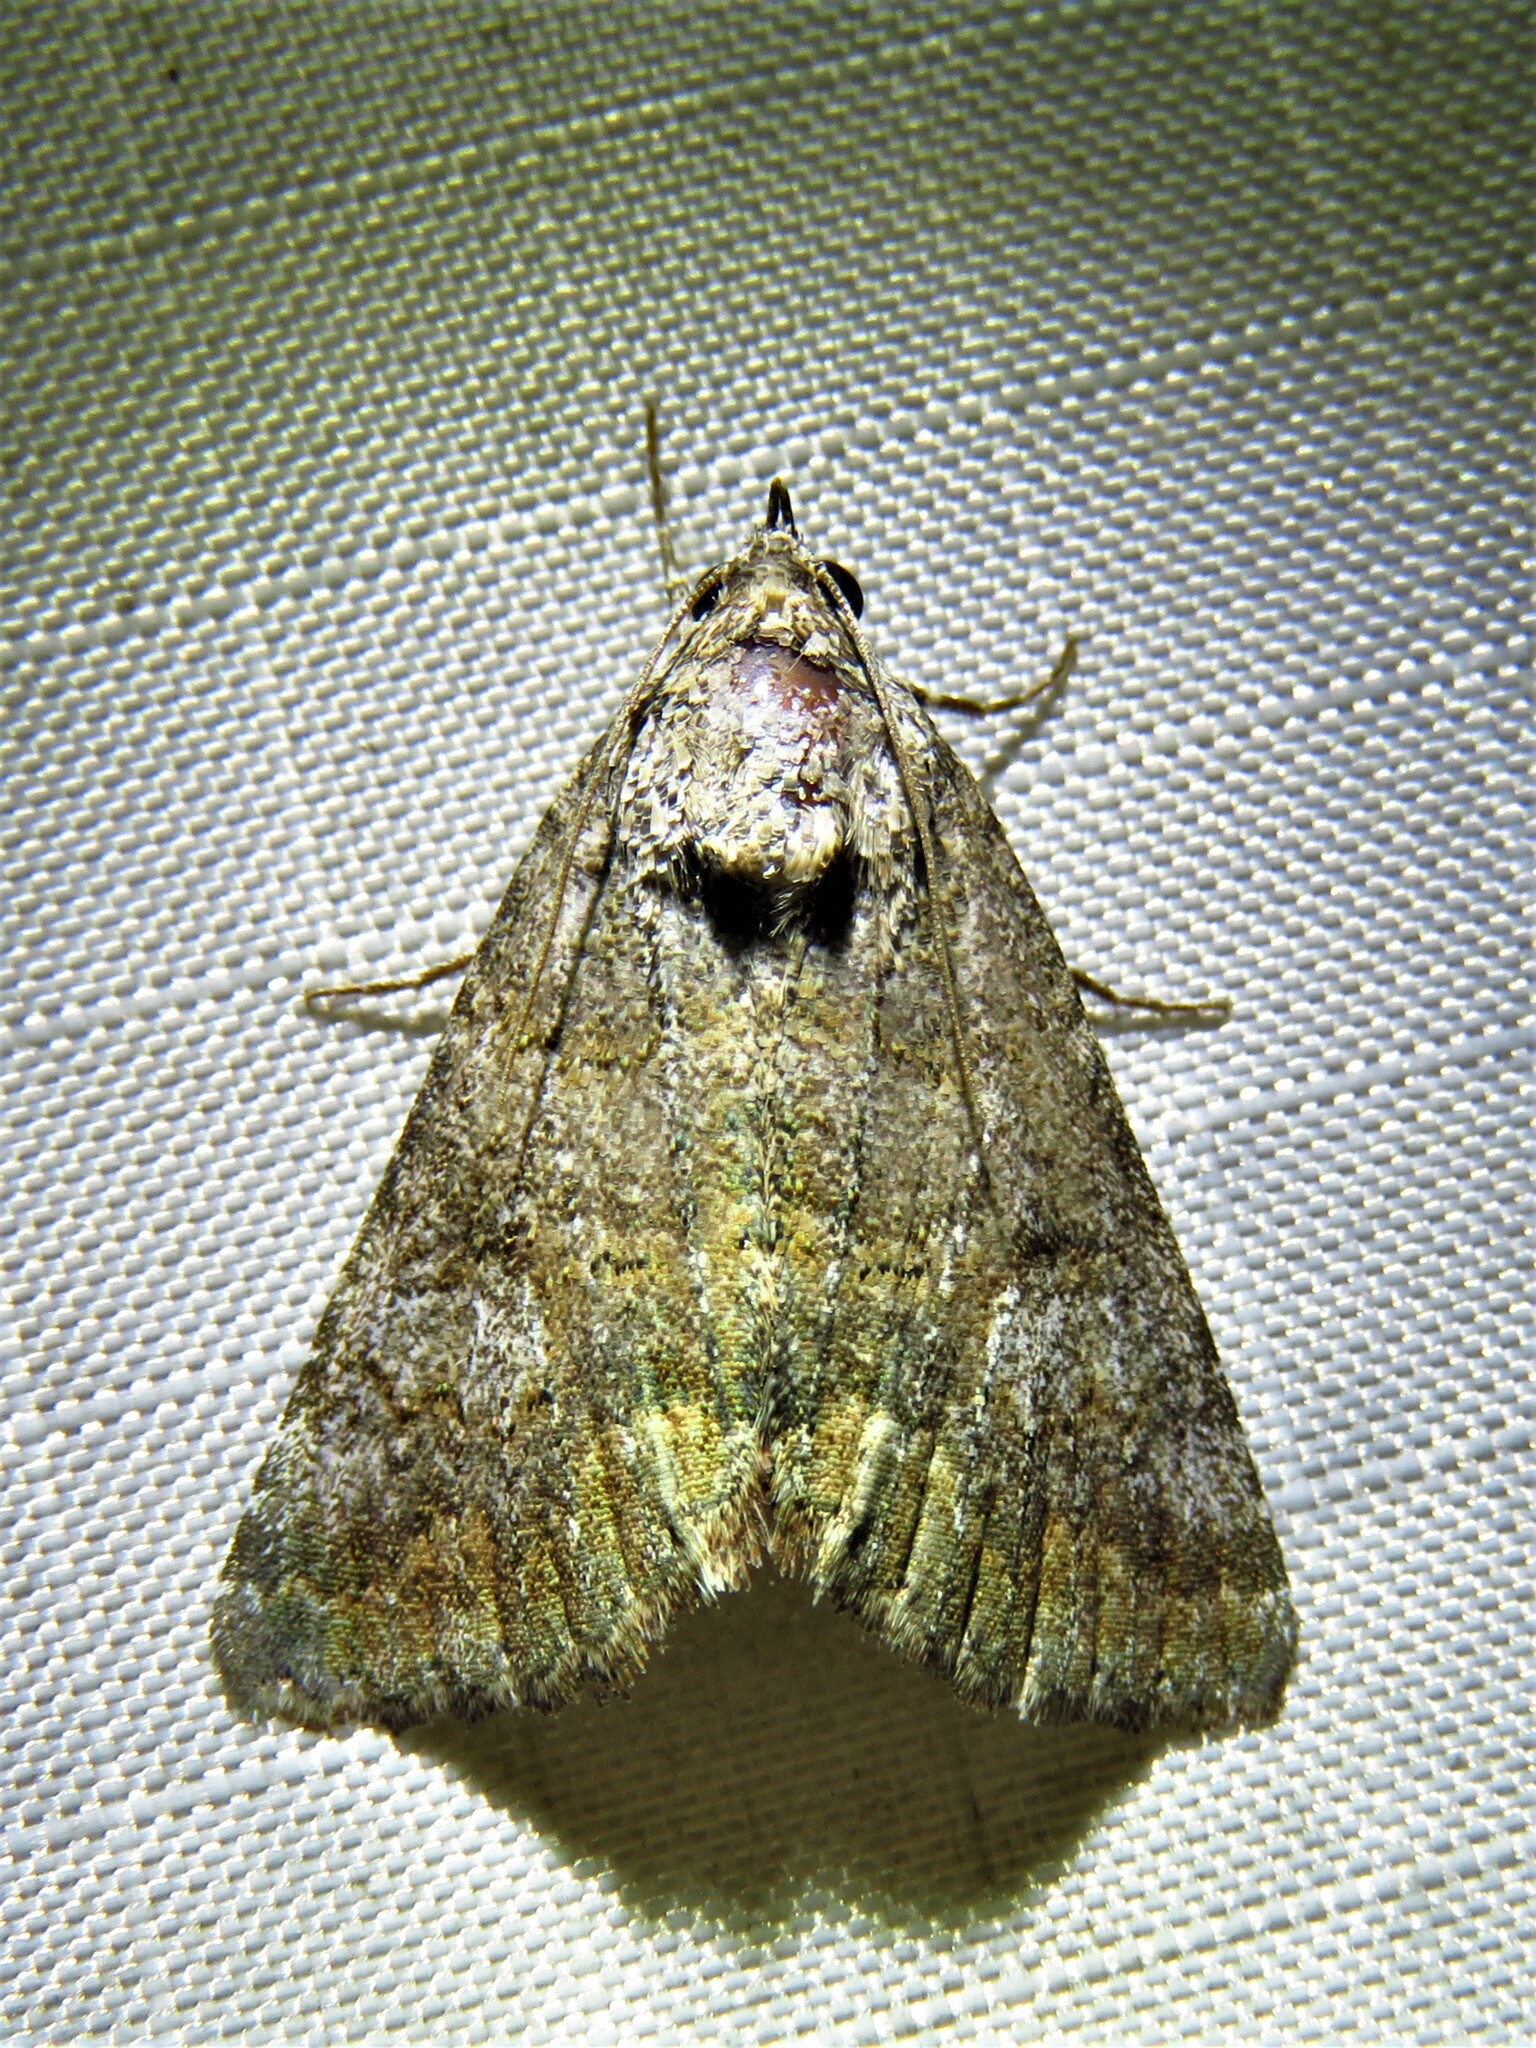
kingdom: Animalia
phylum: Arthropoda
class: Insecta
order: Lepidoptera
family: Erebidae
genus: Eubolina
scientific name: Eubolina impartialis
